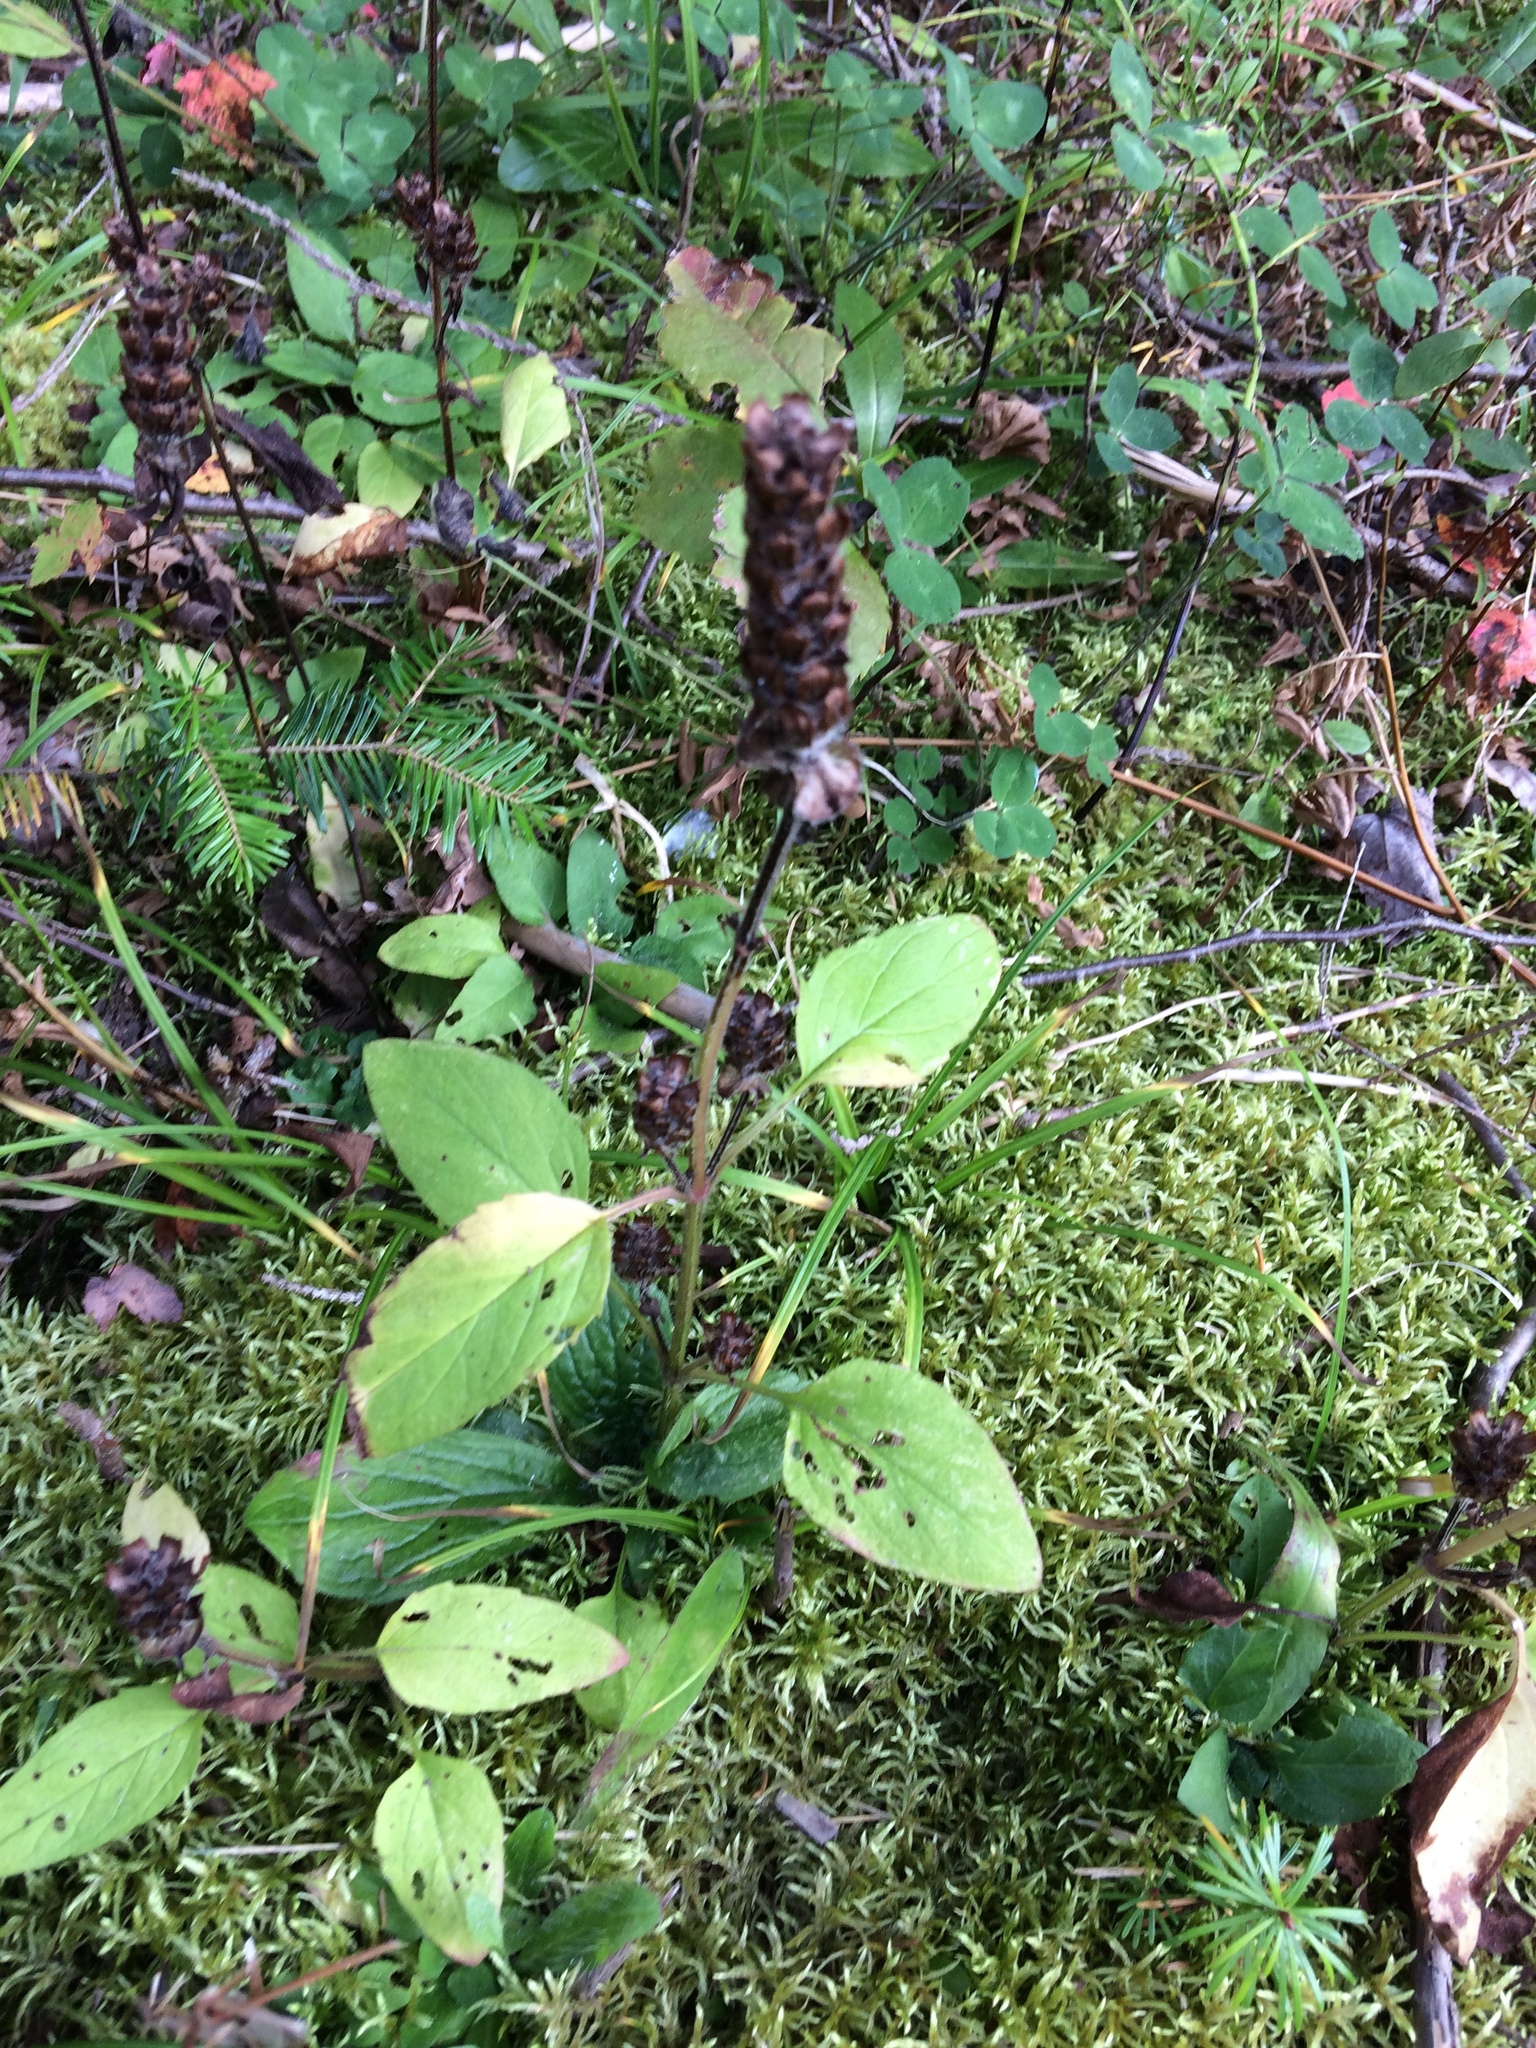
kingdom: Plantae
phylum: Tracheophyta
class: Magnoliopsida
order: Lamiales
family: Lamiaceae
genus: Prunella
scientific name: Prunella vulgaris
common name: Heal-all
